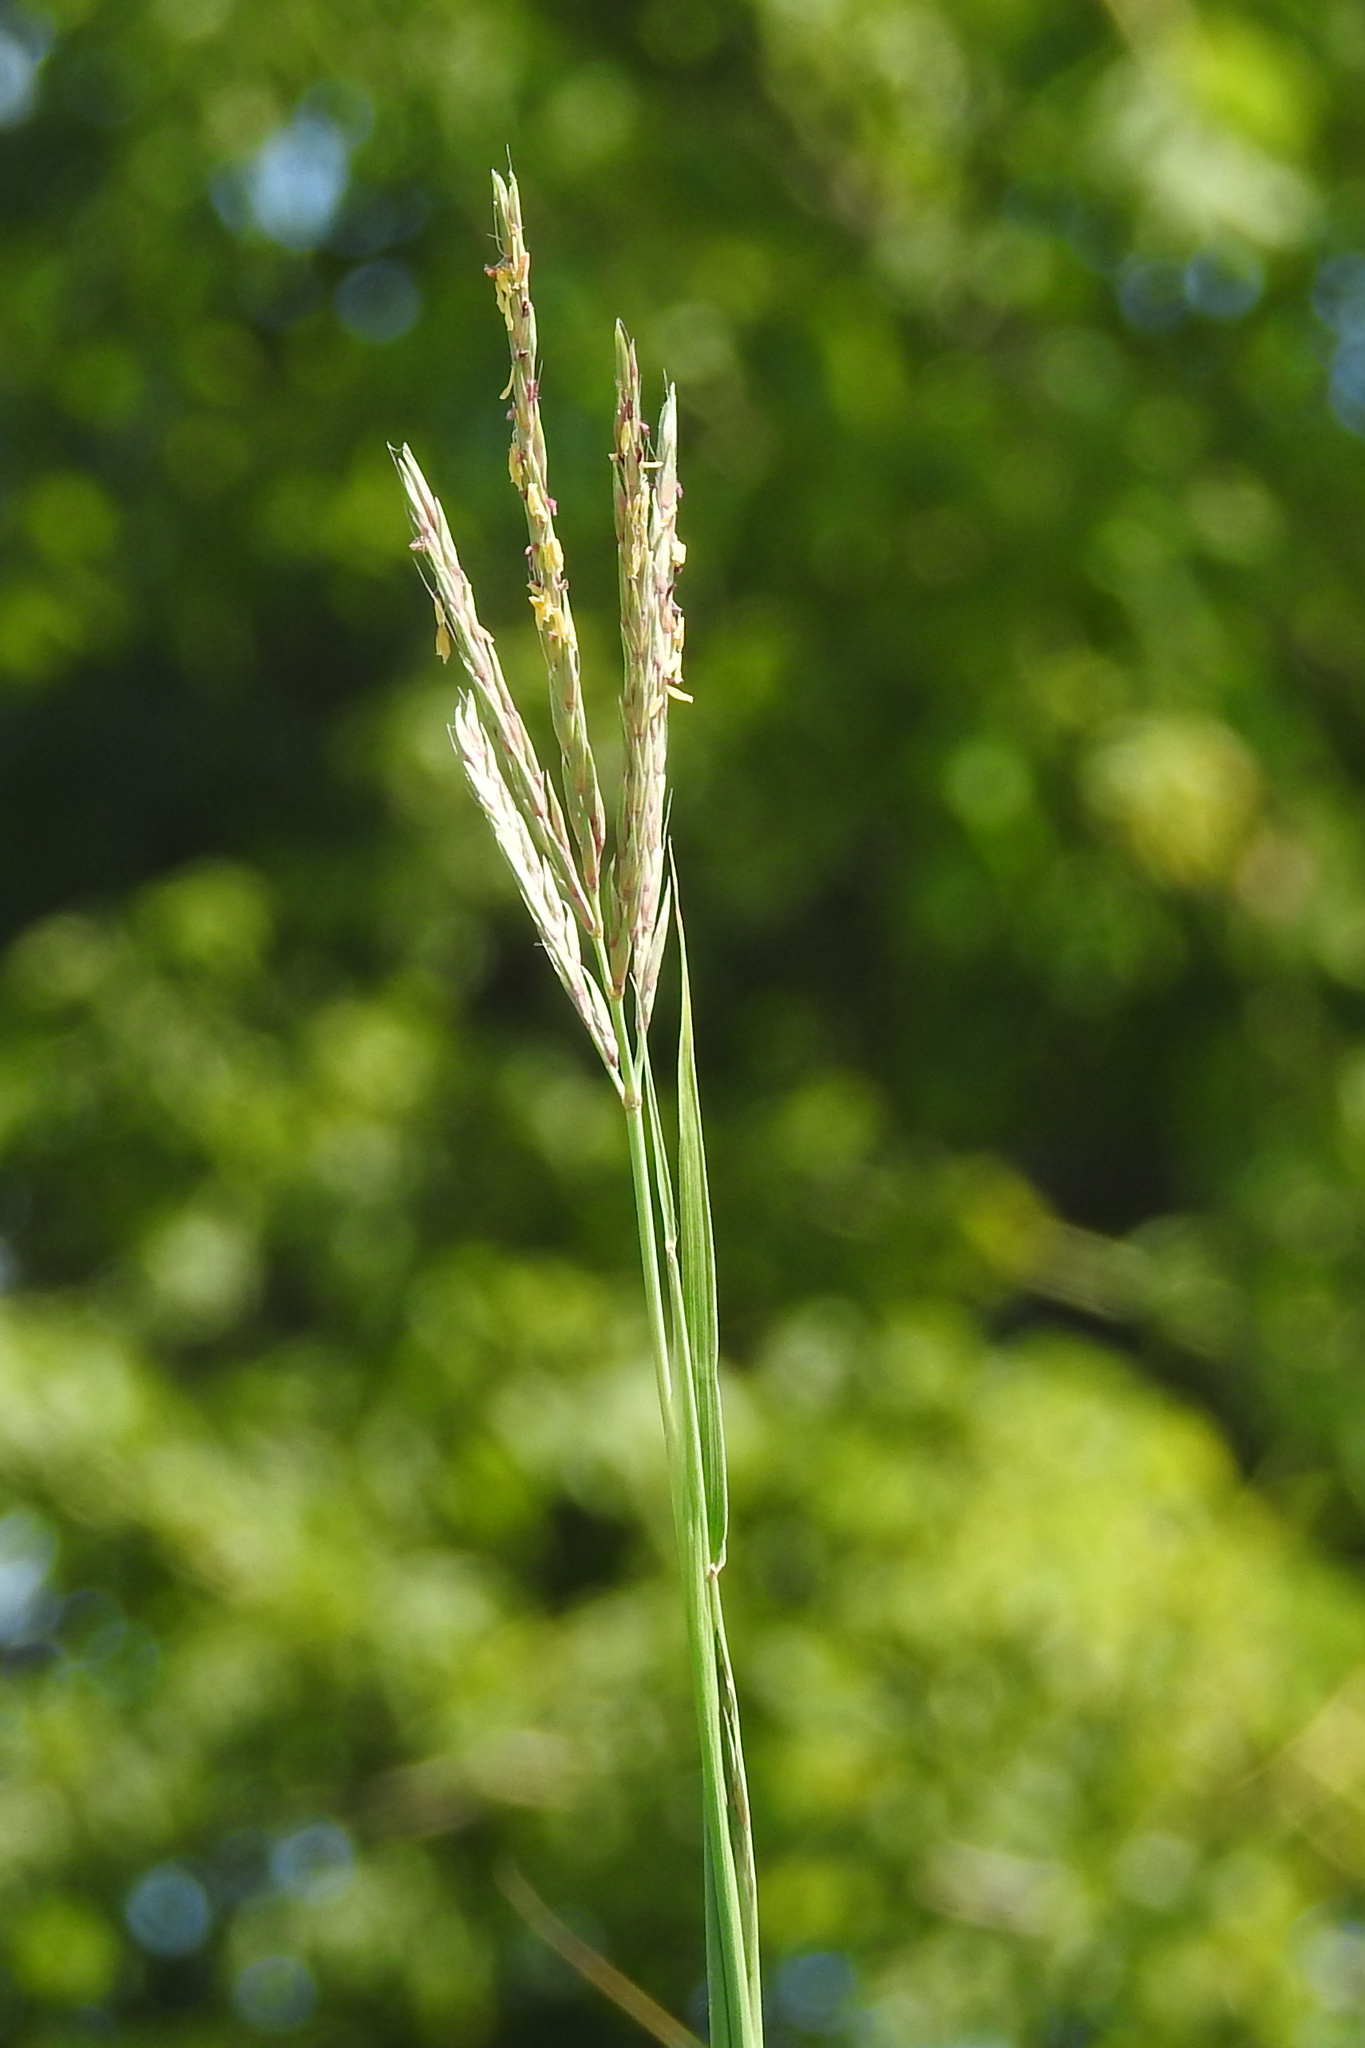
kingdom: Plantae
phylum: Tracheophyta
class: Liliopsida
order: Poales
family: Poaceae
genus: Andropogon
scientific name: Andropogon gerardi
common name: Big bluestem
